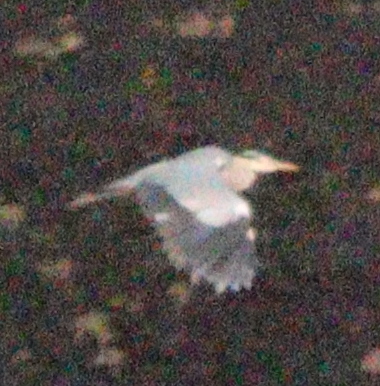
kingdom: Animalia
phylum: Chordata
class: Aves
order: Pelecaniformes
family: Ardeidae
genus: Ardea
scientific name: Ardea cinerea
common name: Grey heron
